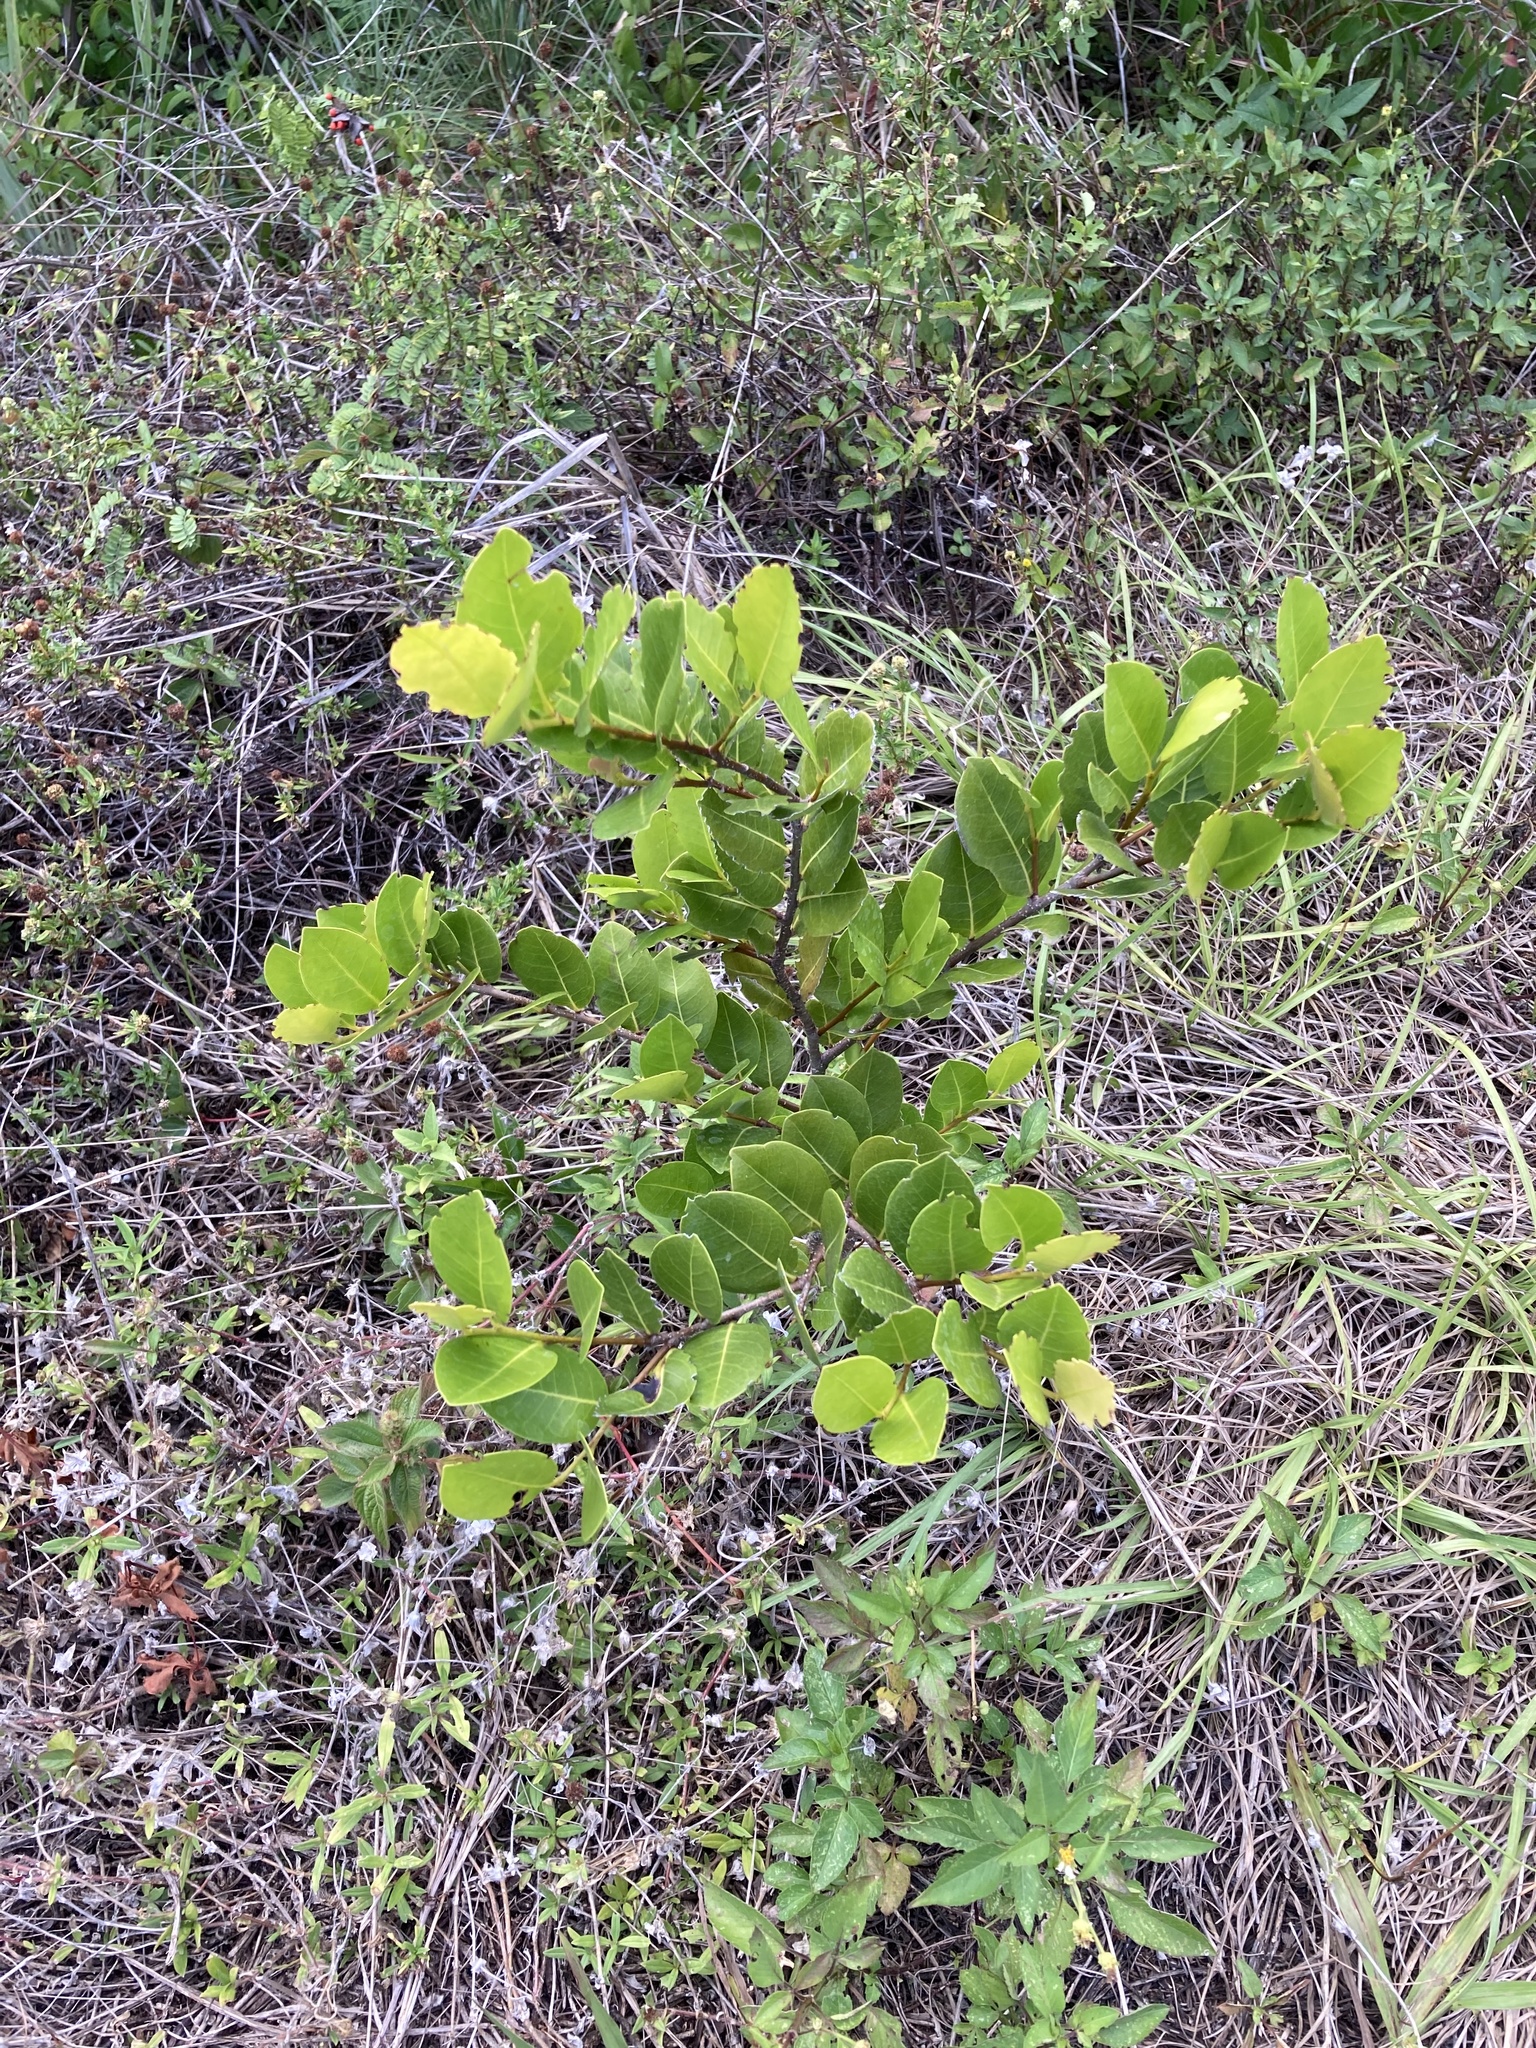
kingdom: Plantae
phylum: Tracheophyta
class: Magnoliopsida
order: Malpighiales
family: Chrysobalanaceae
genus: Chrysobalanus
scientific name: Chrysobalanus icaco
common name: Coco plum
